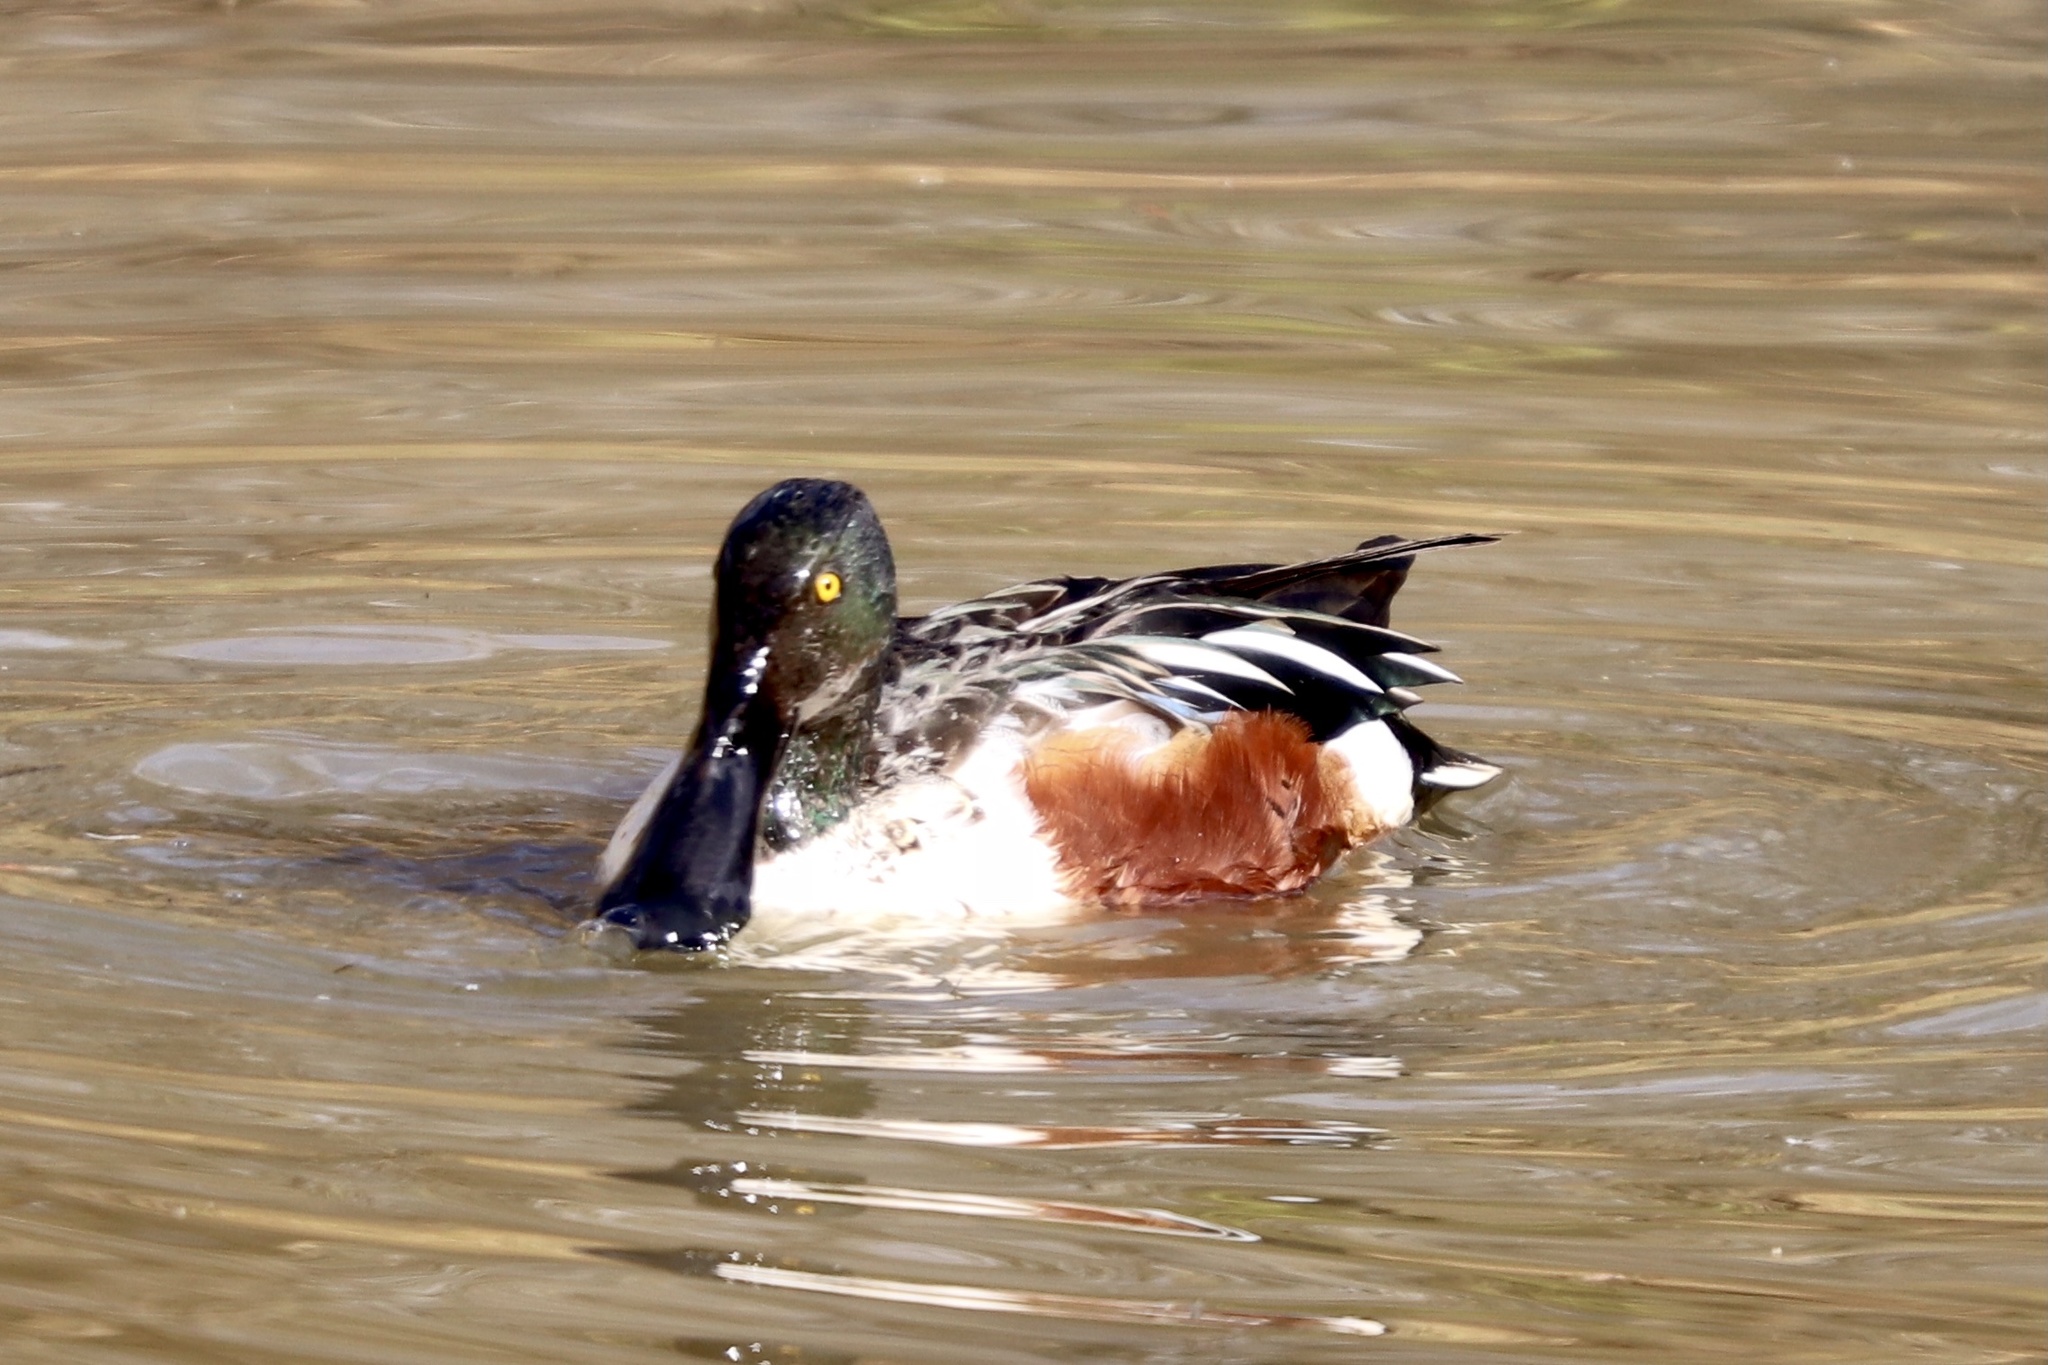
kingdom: Animalia
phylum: Chordata
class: Aves
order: Anseriformes
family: Anatidae
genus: Spatula
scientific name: Spatula clypeata
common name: Northern shoveler
